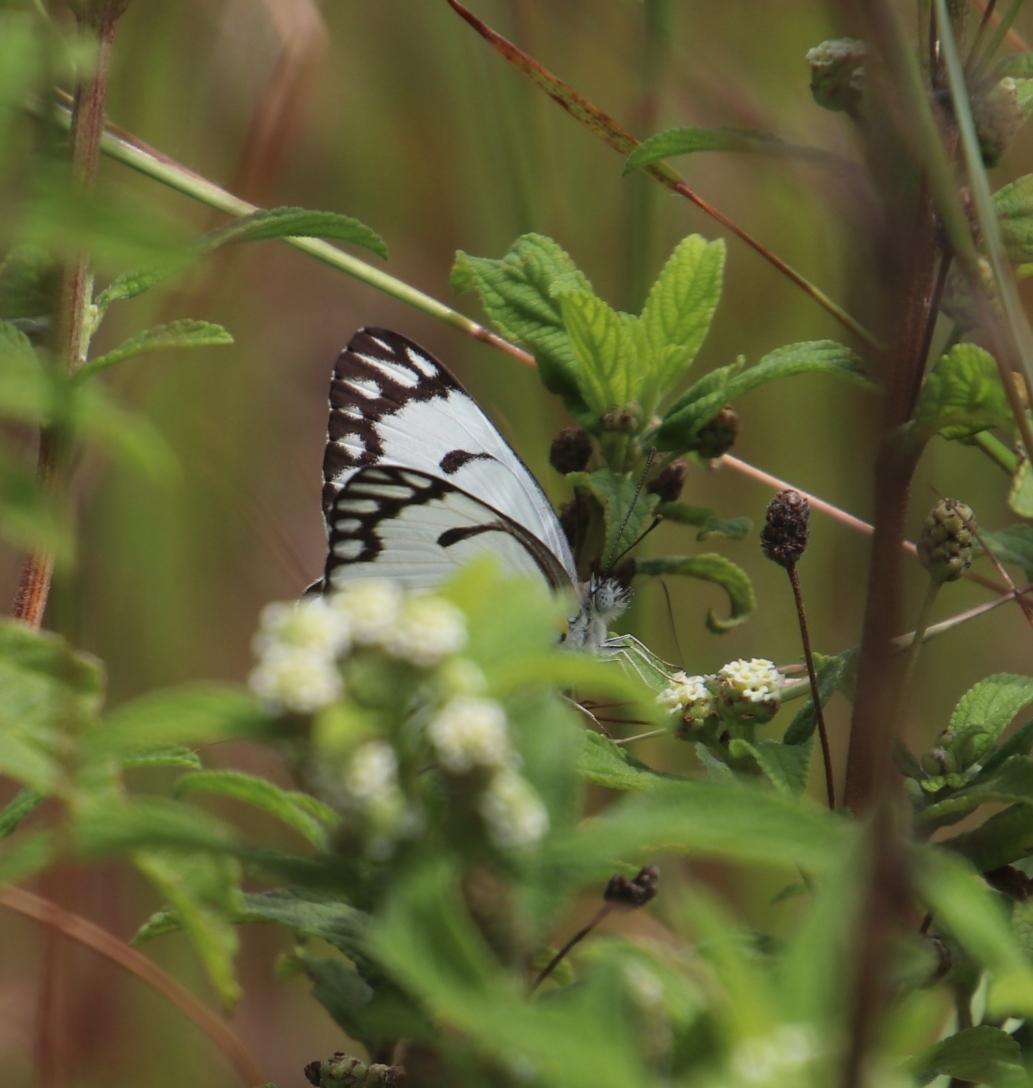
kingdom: Plantae
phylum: Tracheophyta
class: Magnoliopsida
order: Lamiales
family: Verbenaceae
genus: Lippia
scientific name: Lippia javanica
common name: Lemonbush
